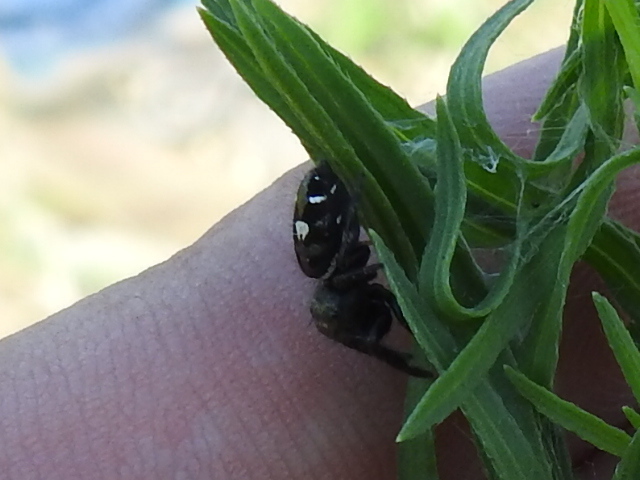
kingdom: Animalia
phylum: Arthropoda
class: Arachnida
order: Araneae
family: Salticidae
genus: Phidippus
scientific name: Phidippus audax
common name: Bold jumper
